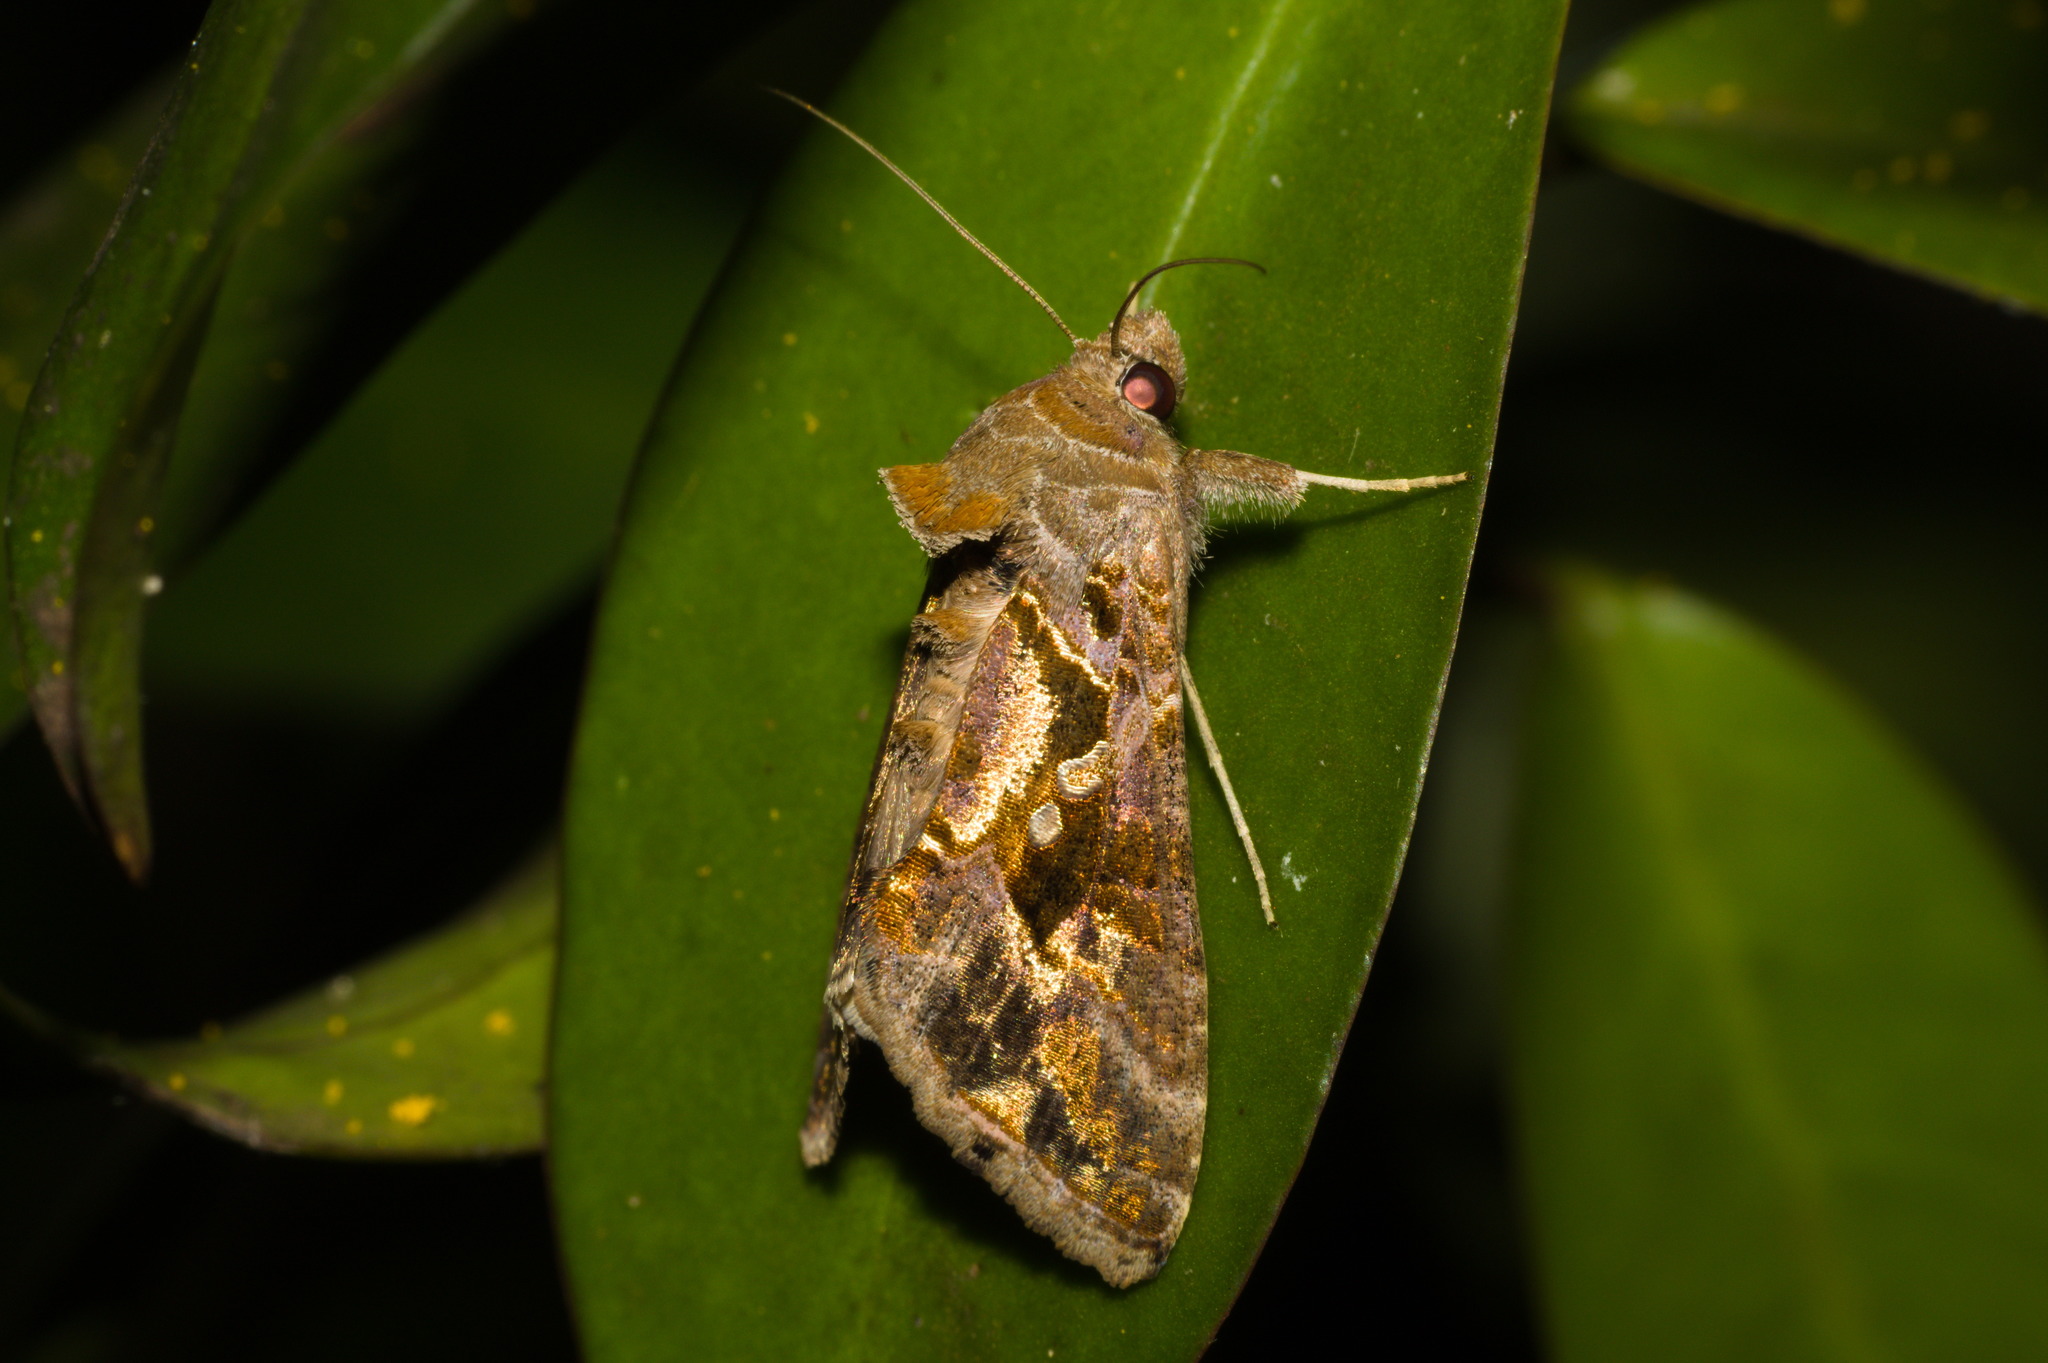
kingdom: Animalia
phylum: Arthropoda
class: Insecta
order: Lepidoptera
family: Noctuidae
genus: Chrysodeixis
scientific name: Chrysodeixis includens
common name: Cutworm moth
